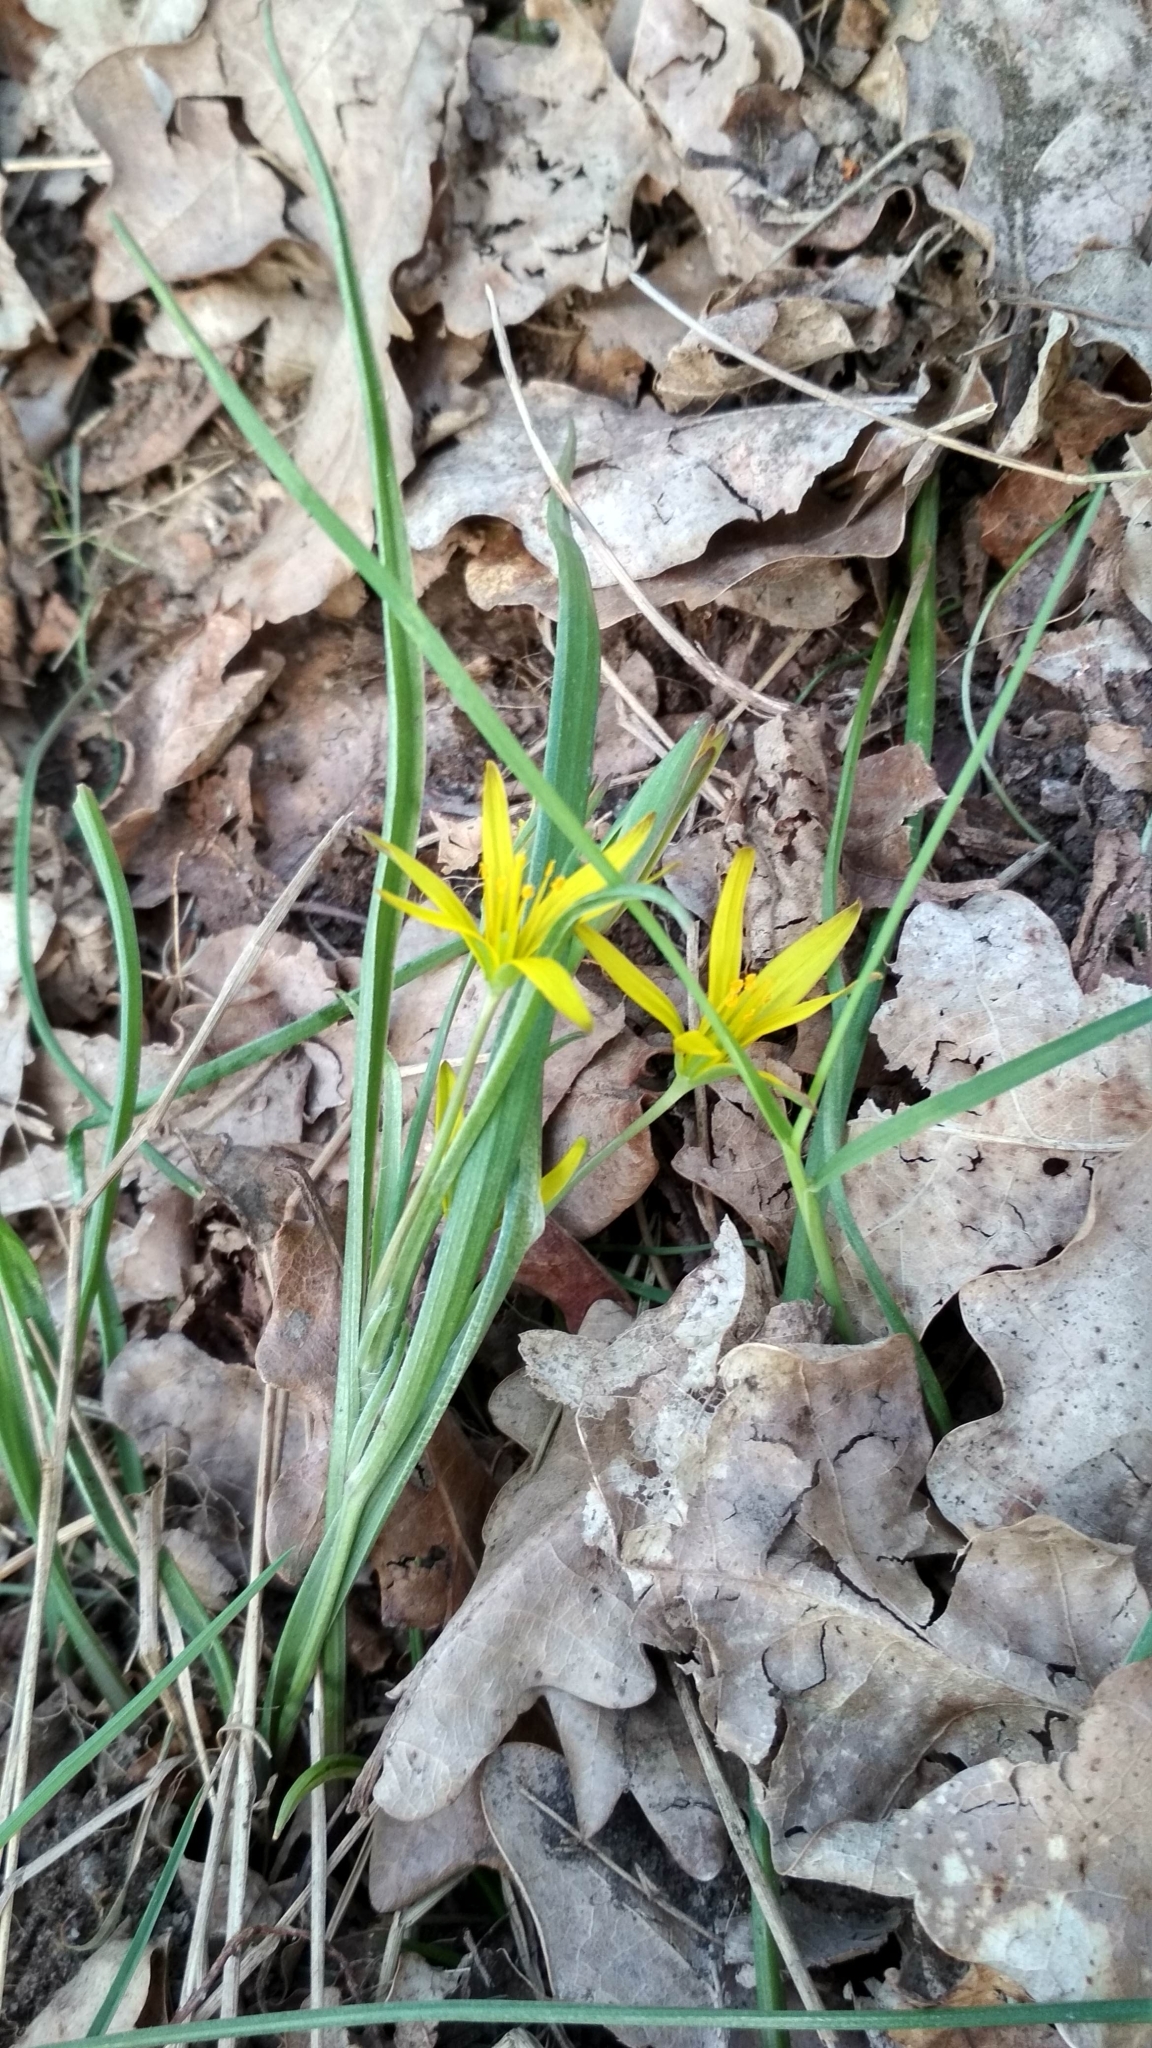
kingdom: Plantae
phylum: Tracheophyta
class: Liliopsida
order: Liliales
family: Liliaceae
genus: Gagea
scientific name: Gagea pratensis
